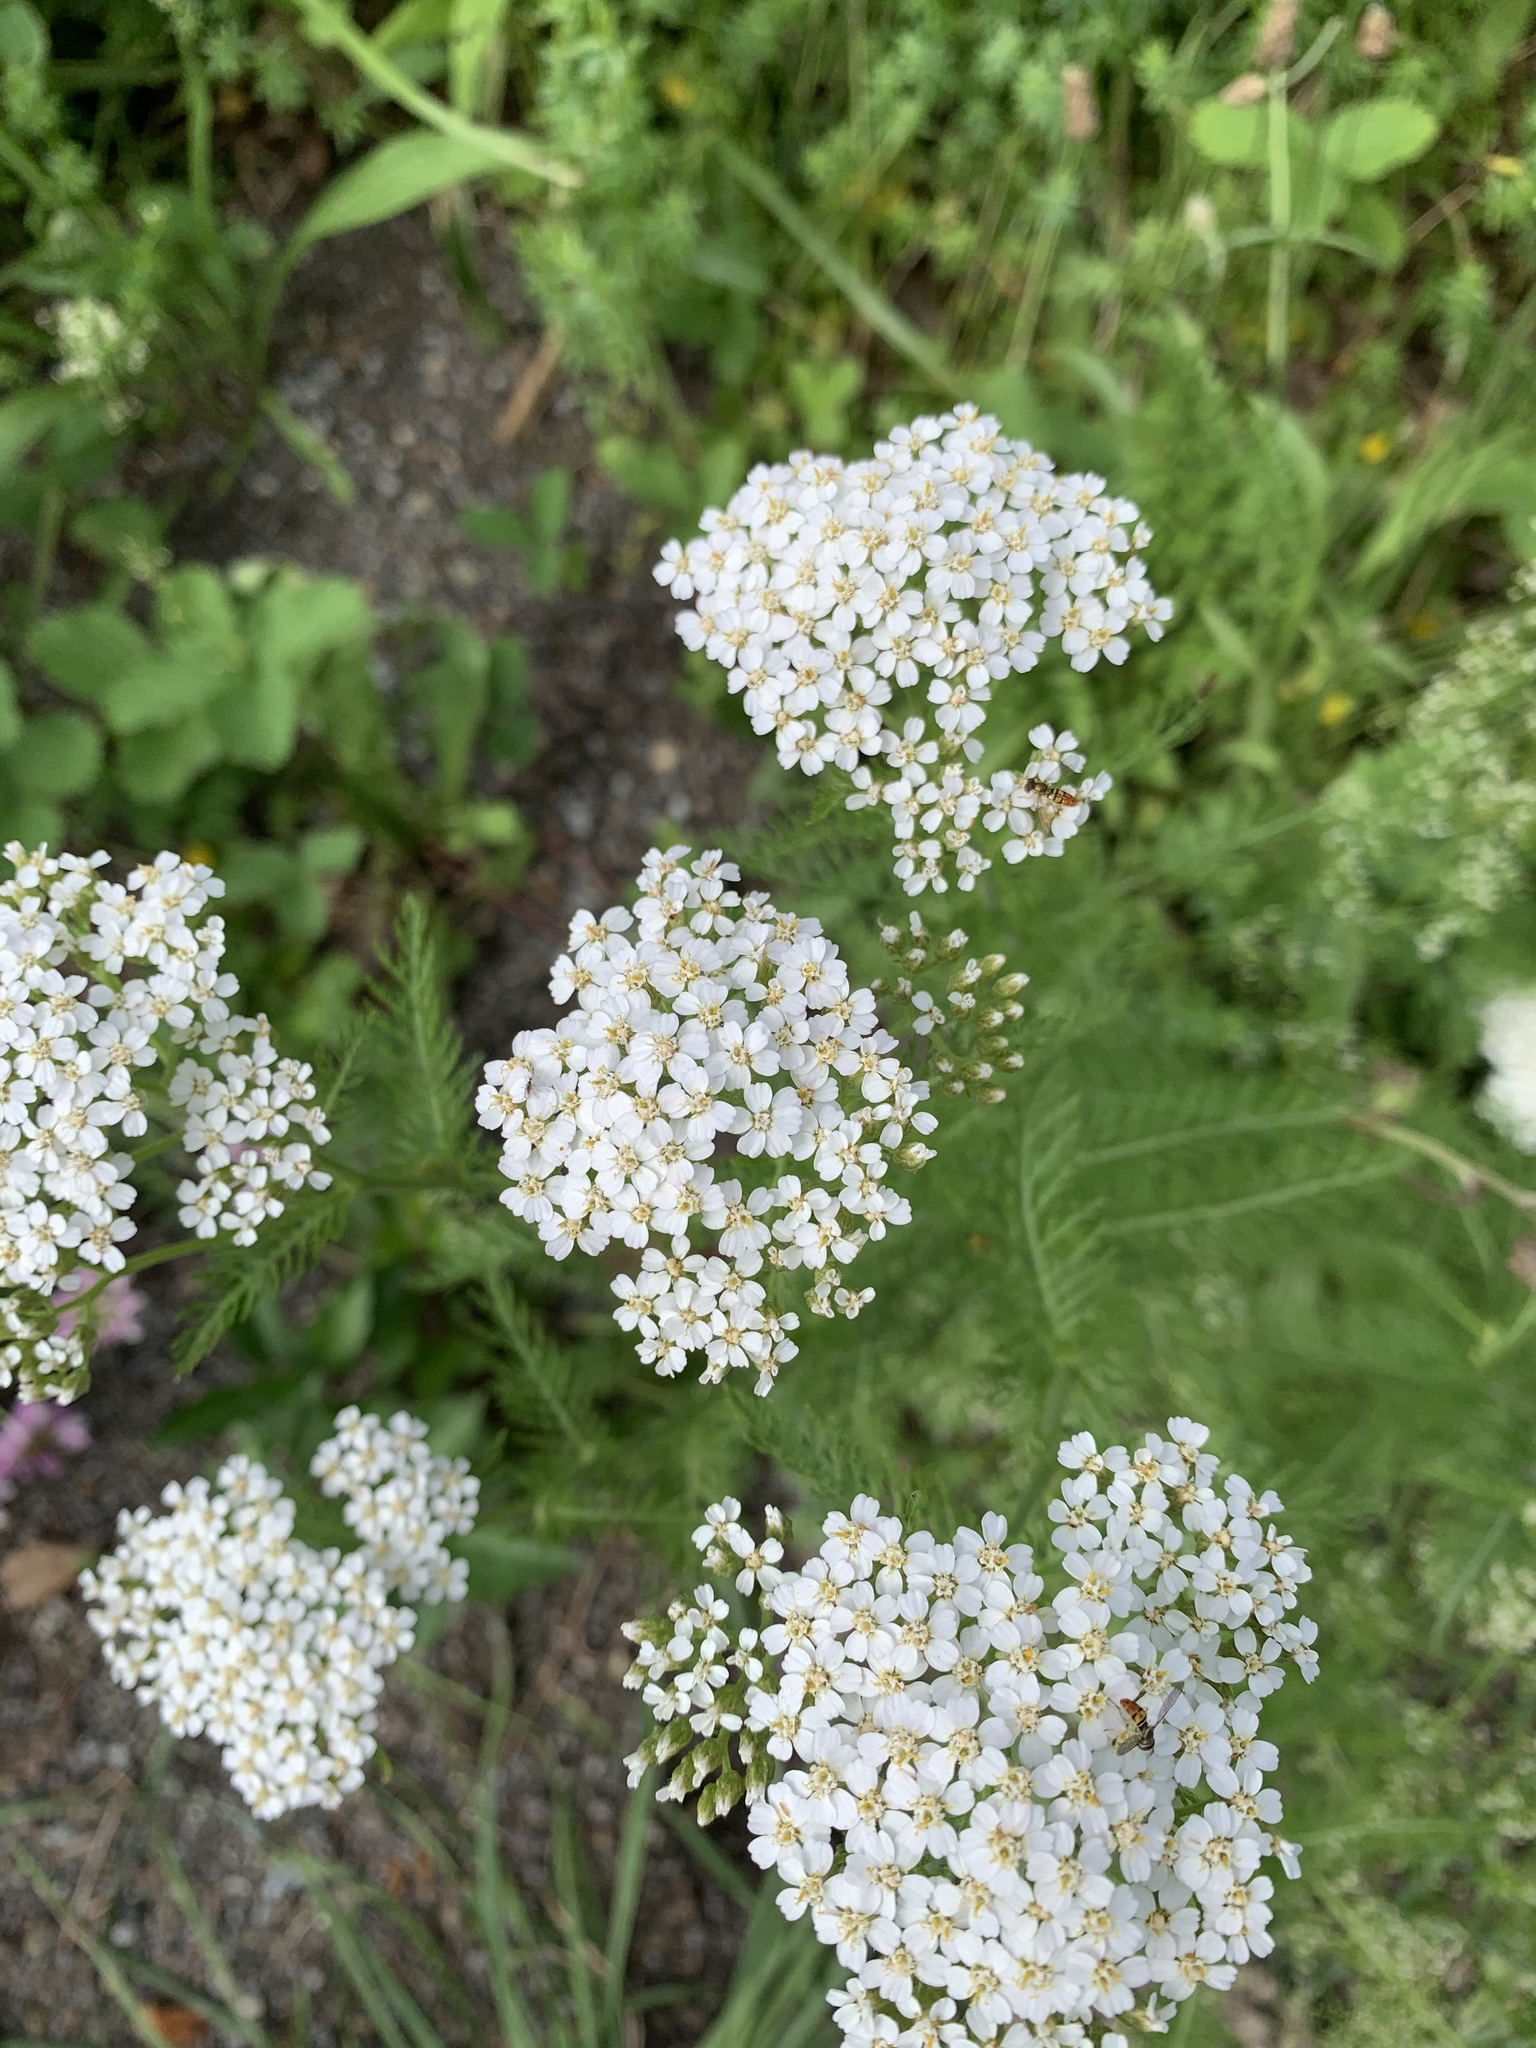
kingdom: Plantae
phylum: Tracheophyta
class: Magnoliopsida
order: Asterales
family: Asteraceae
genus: Achillea
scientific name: Achillea millefolium
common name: Yarrow
